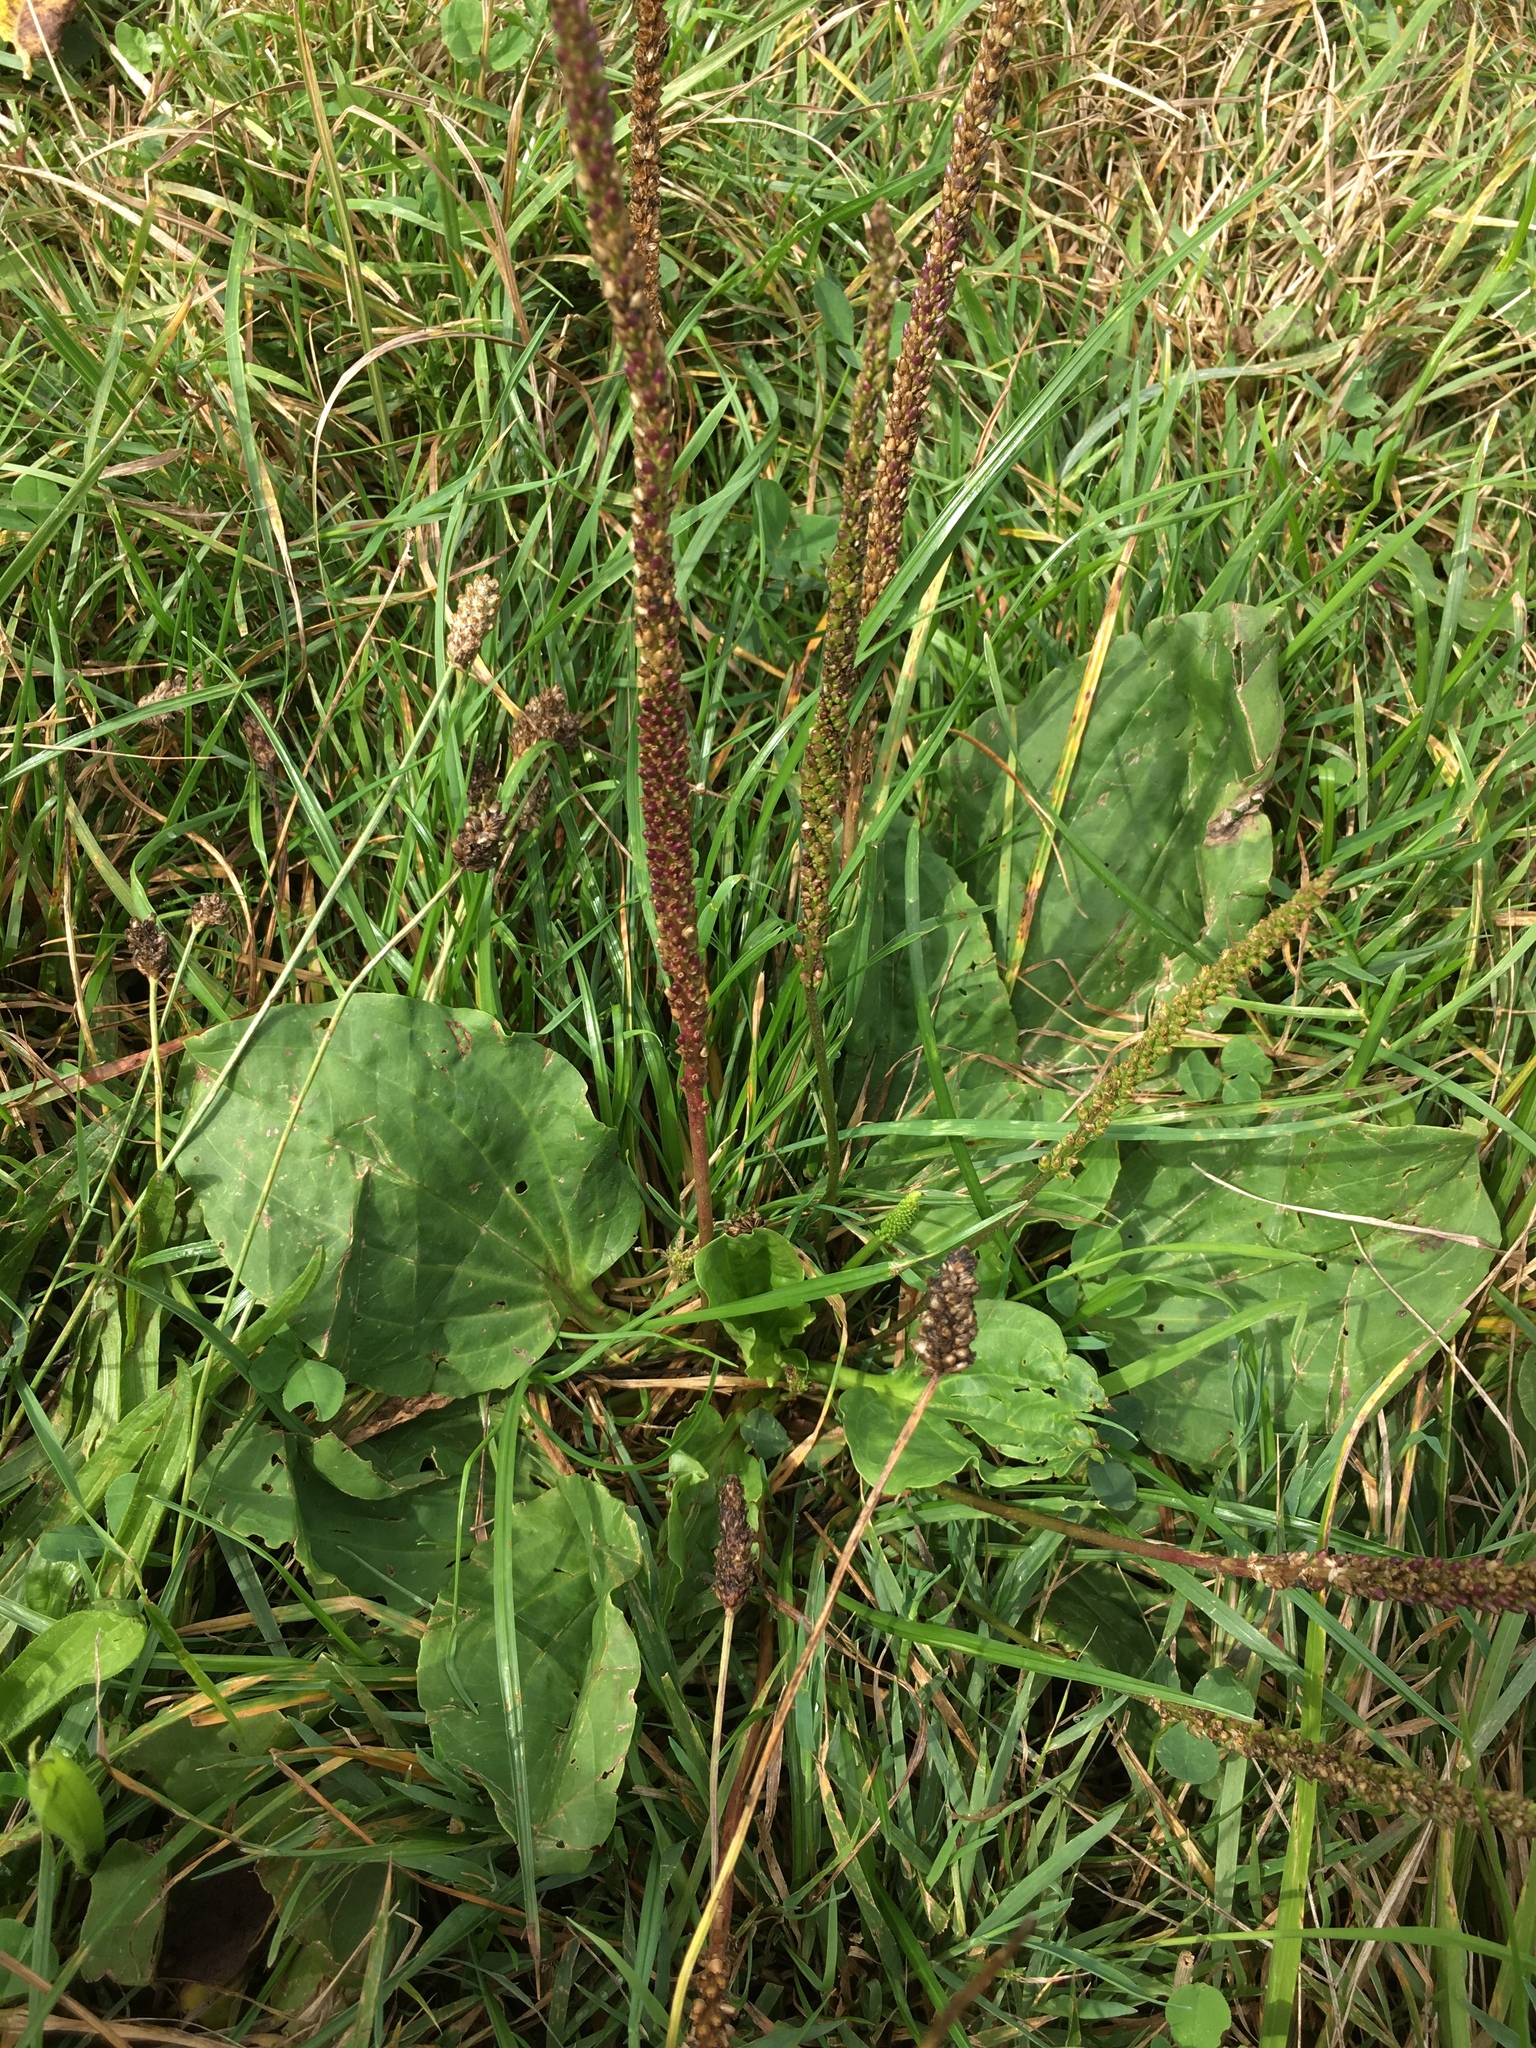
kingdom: Plantae
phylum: Tracheophyta
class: Magnoliopsida
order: Lamiales
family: Plantaginaceae
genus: Plantago
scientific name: Plantago major
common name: Common plantain
